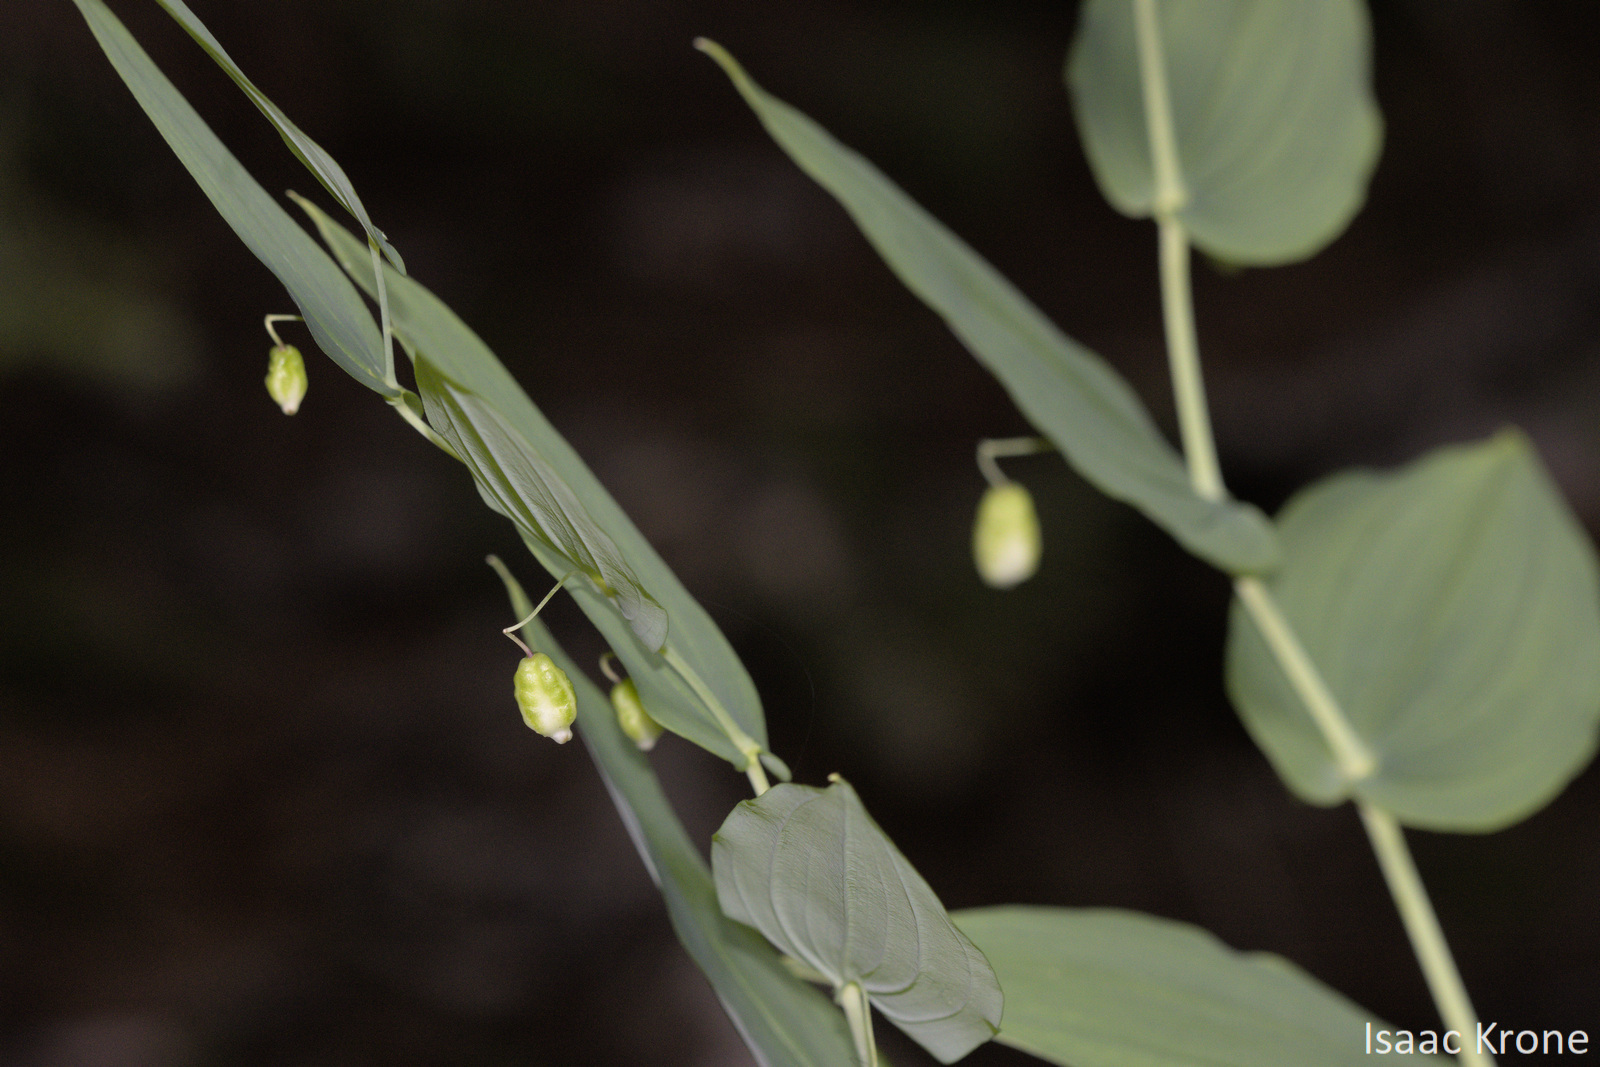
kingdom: Plantae
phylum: Tracheophyta
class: Liliopsida
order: Liliales
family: Liliaceae
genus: Streptopus
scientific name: Streptopus amplexifolius
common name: Clasp twisted stalk
